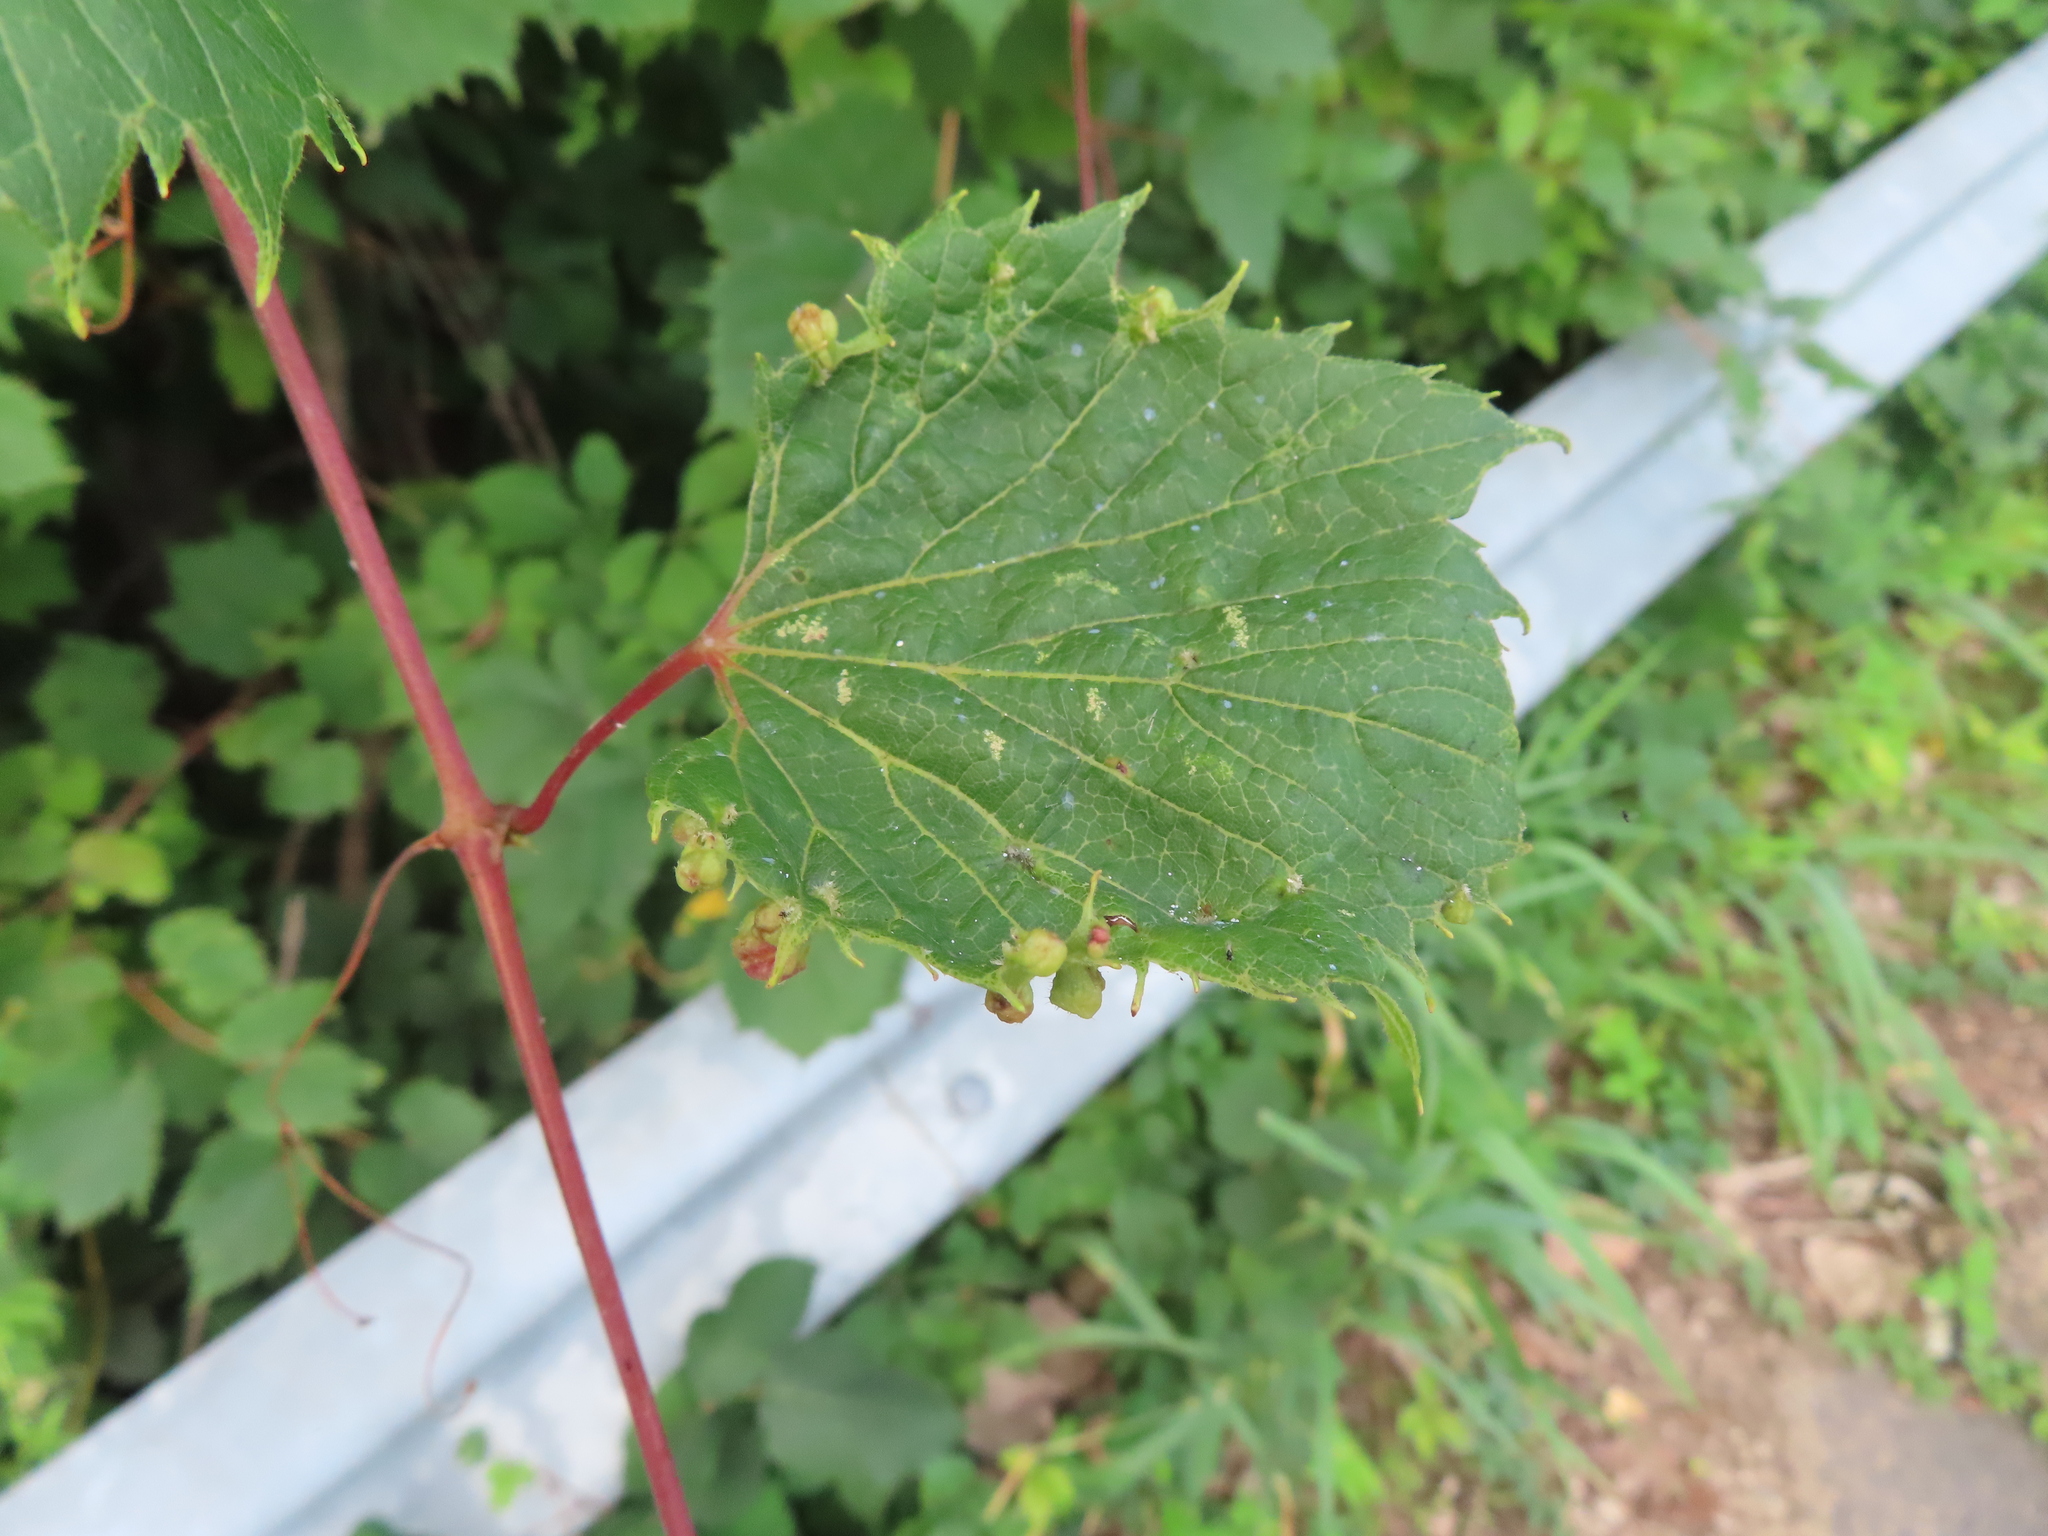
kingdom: Animalia
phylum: Arthropoda
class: Insecta
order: Hemiptera
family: Phylloxeridae
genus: Daktulosphaira
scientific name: Daktulosphaira vitifoliae
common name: Grape phylloxera
